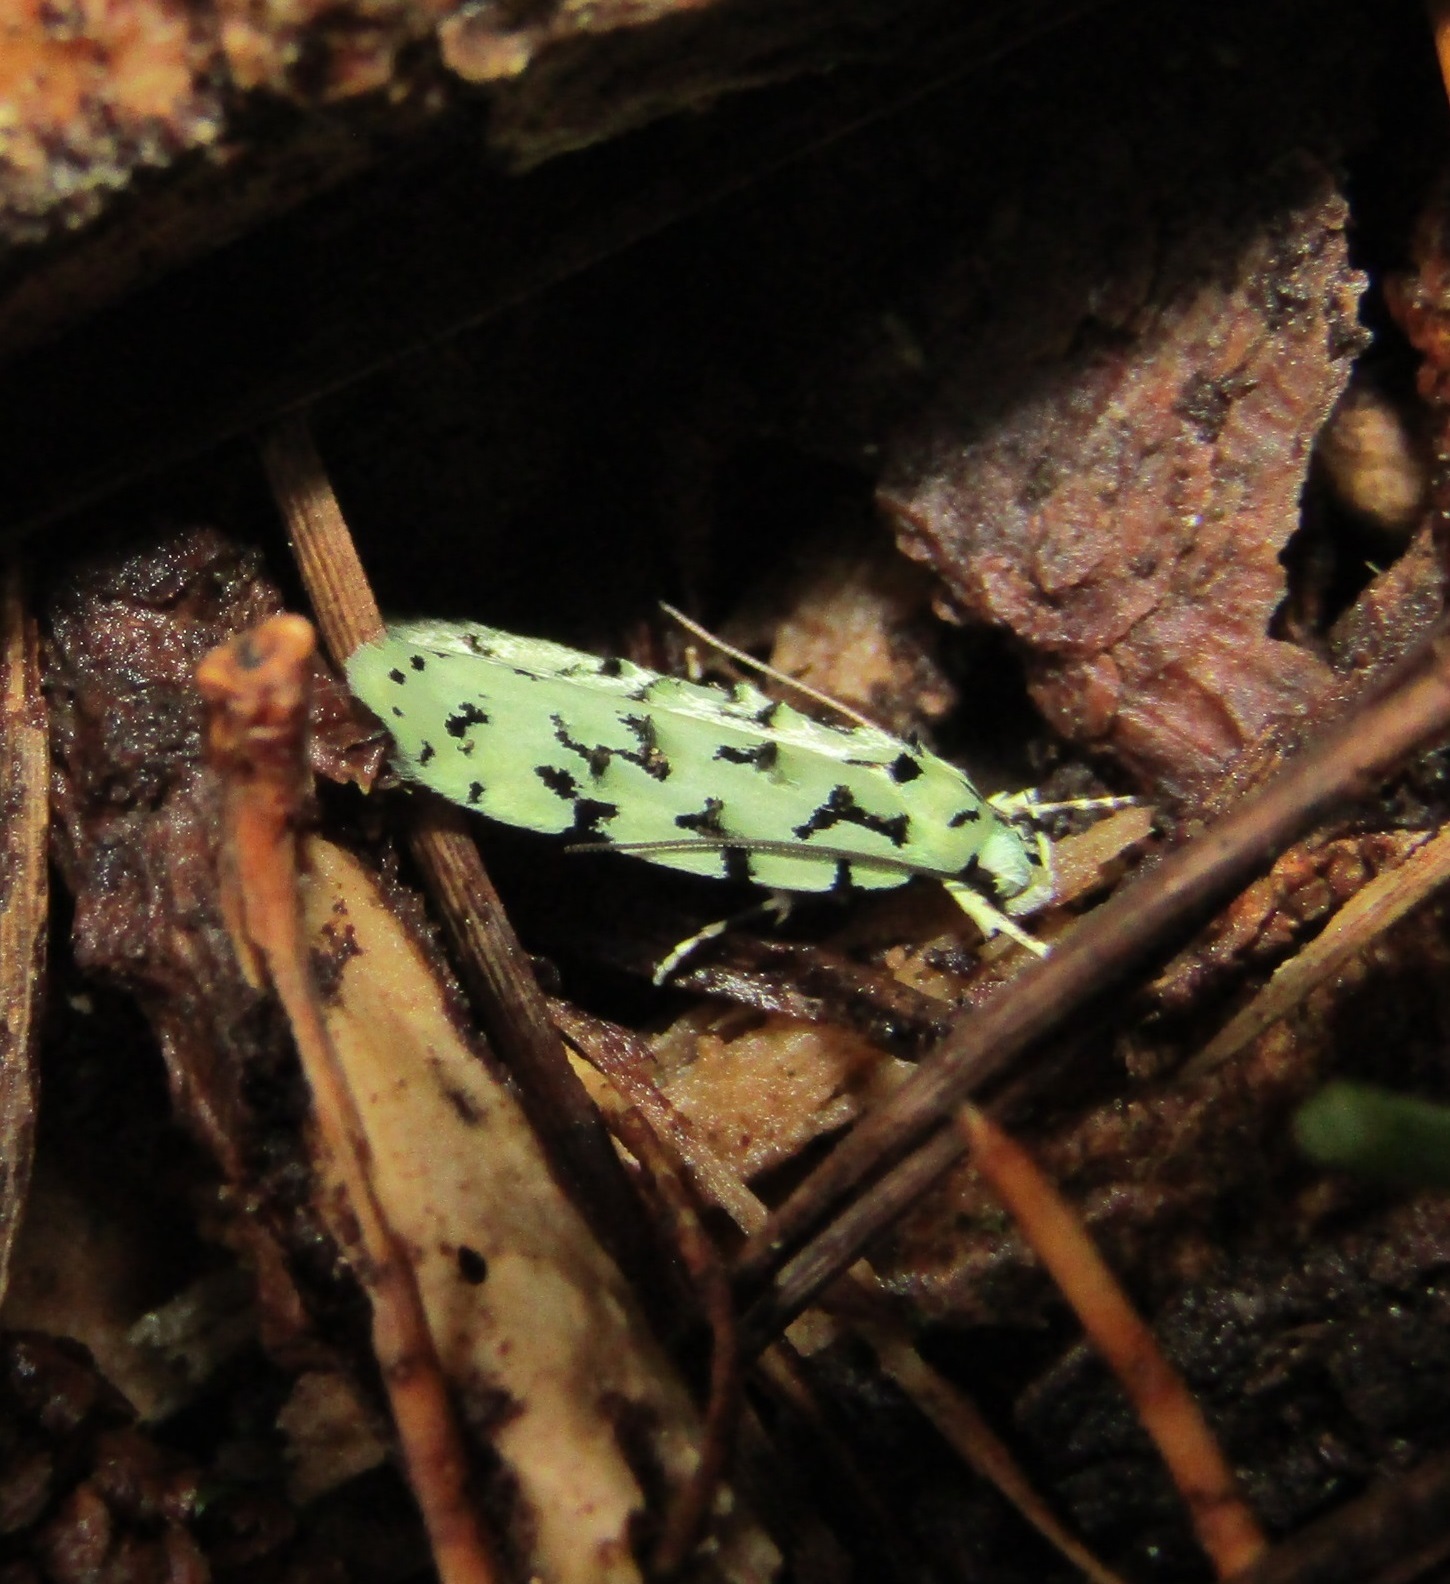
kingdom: Animalia
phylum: Arthropoda
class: Insecta
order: Lepidoptera
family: Oecophoridae
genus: Izatha
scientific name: Izatha huttoni
